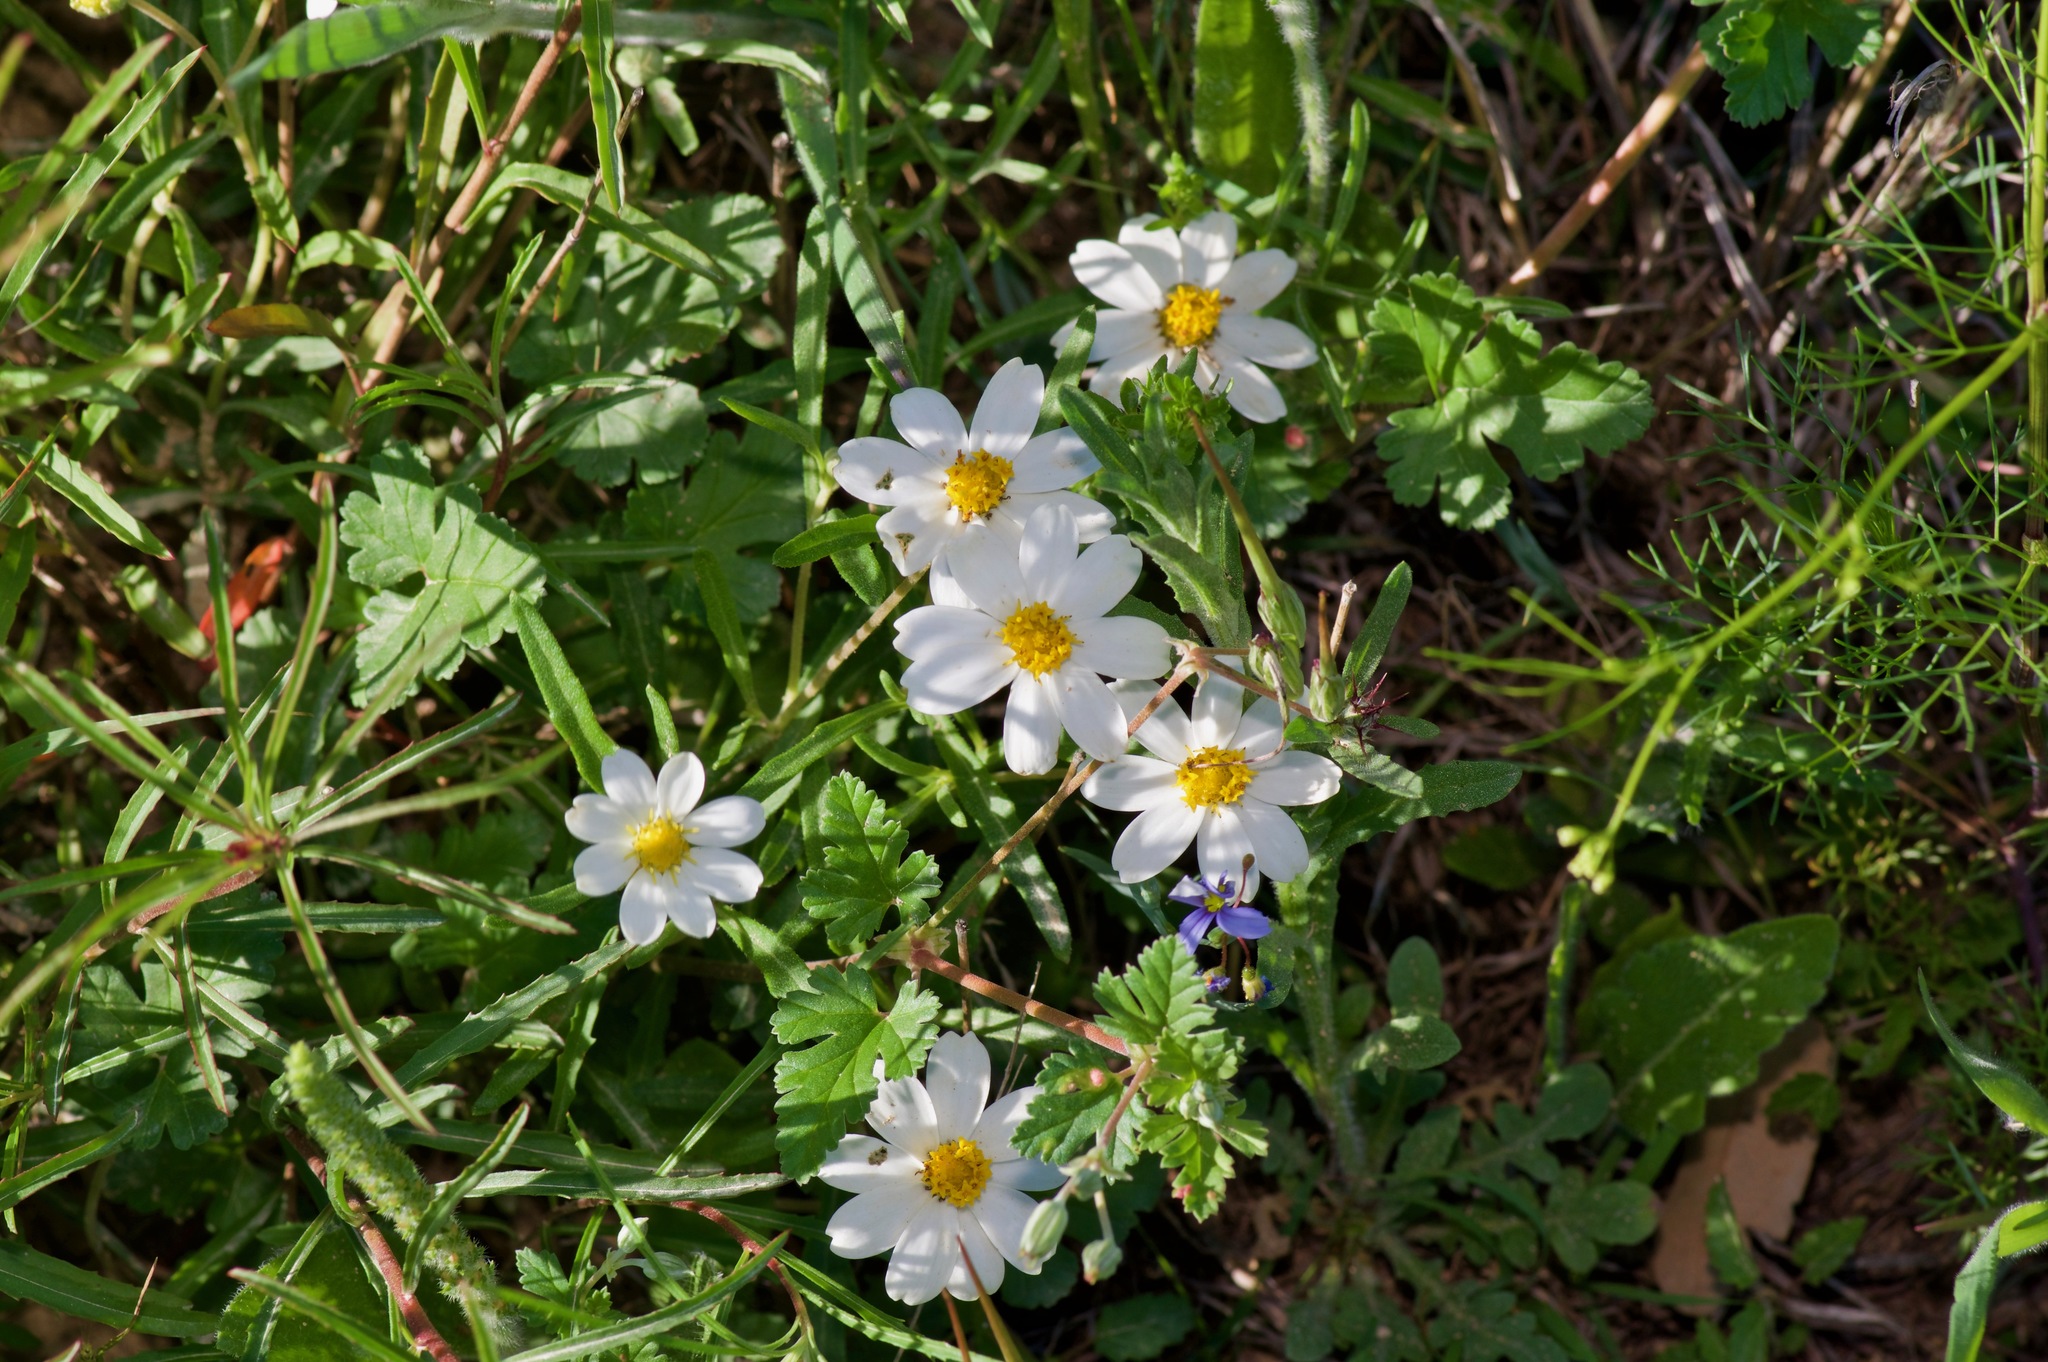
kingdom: Plantae
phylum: Tracheophyta
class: Magnoliopsida
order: Asterales
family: Asteraceae
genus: Melampodium
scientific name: Melampodium leucanthum
